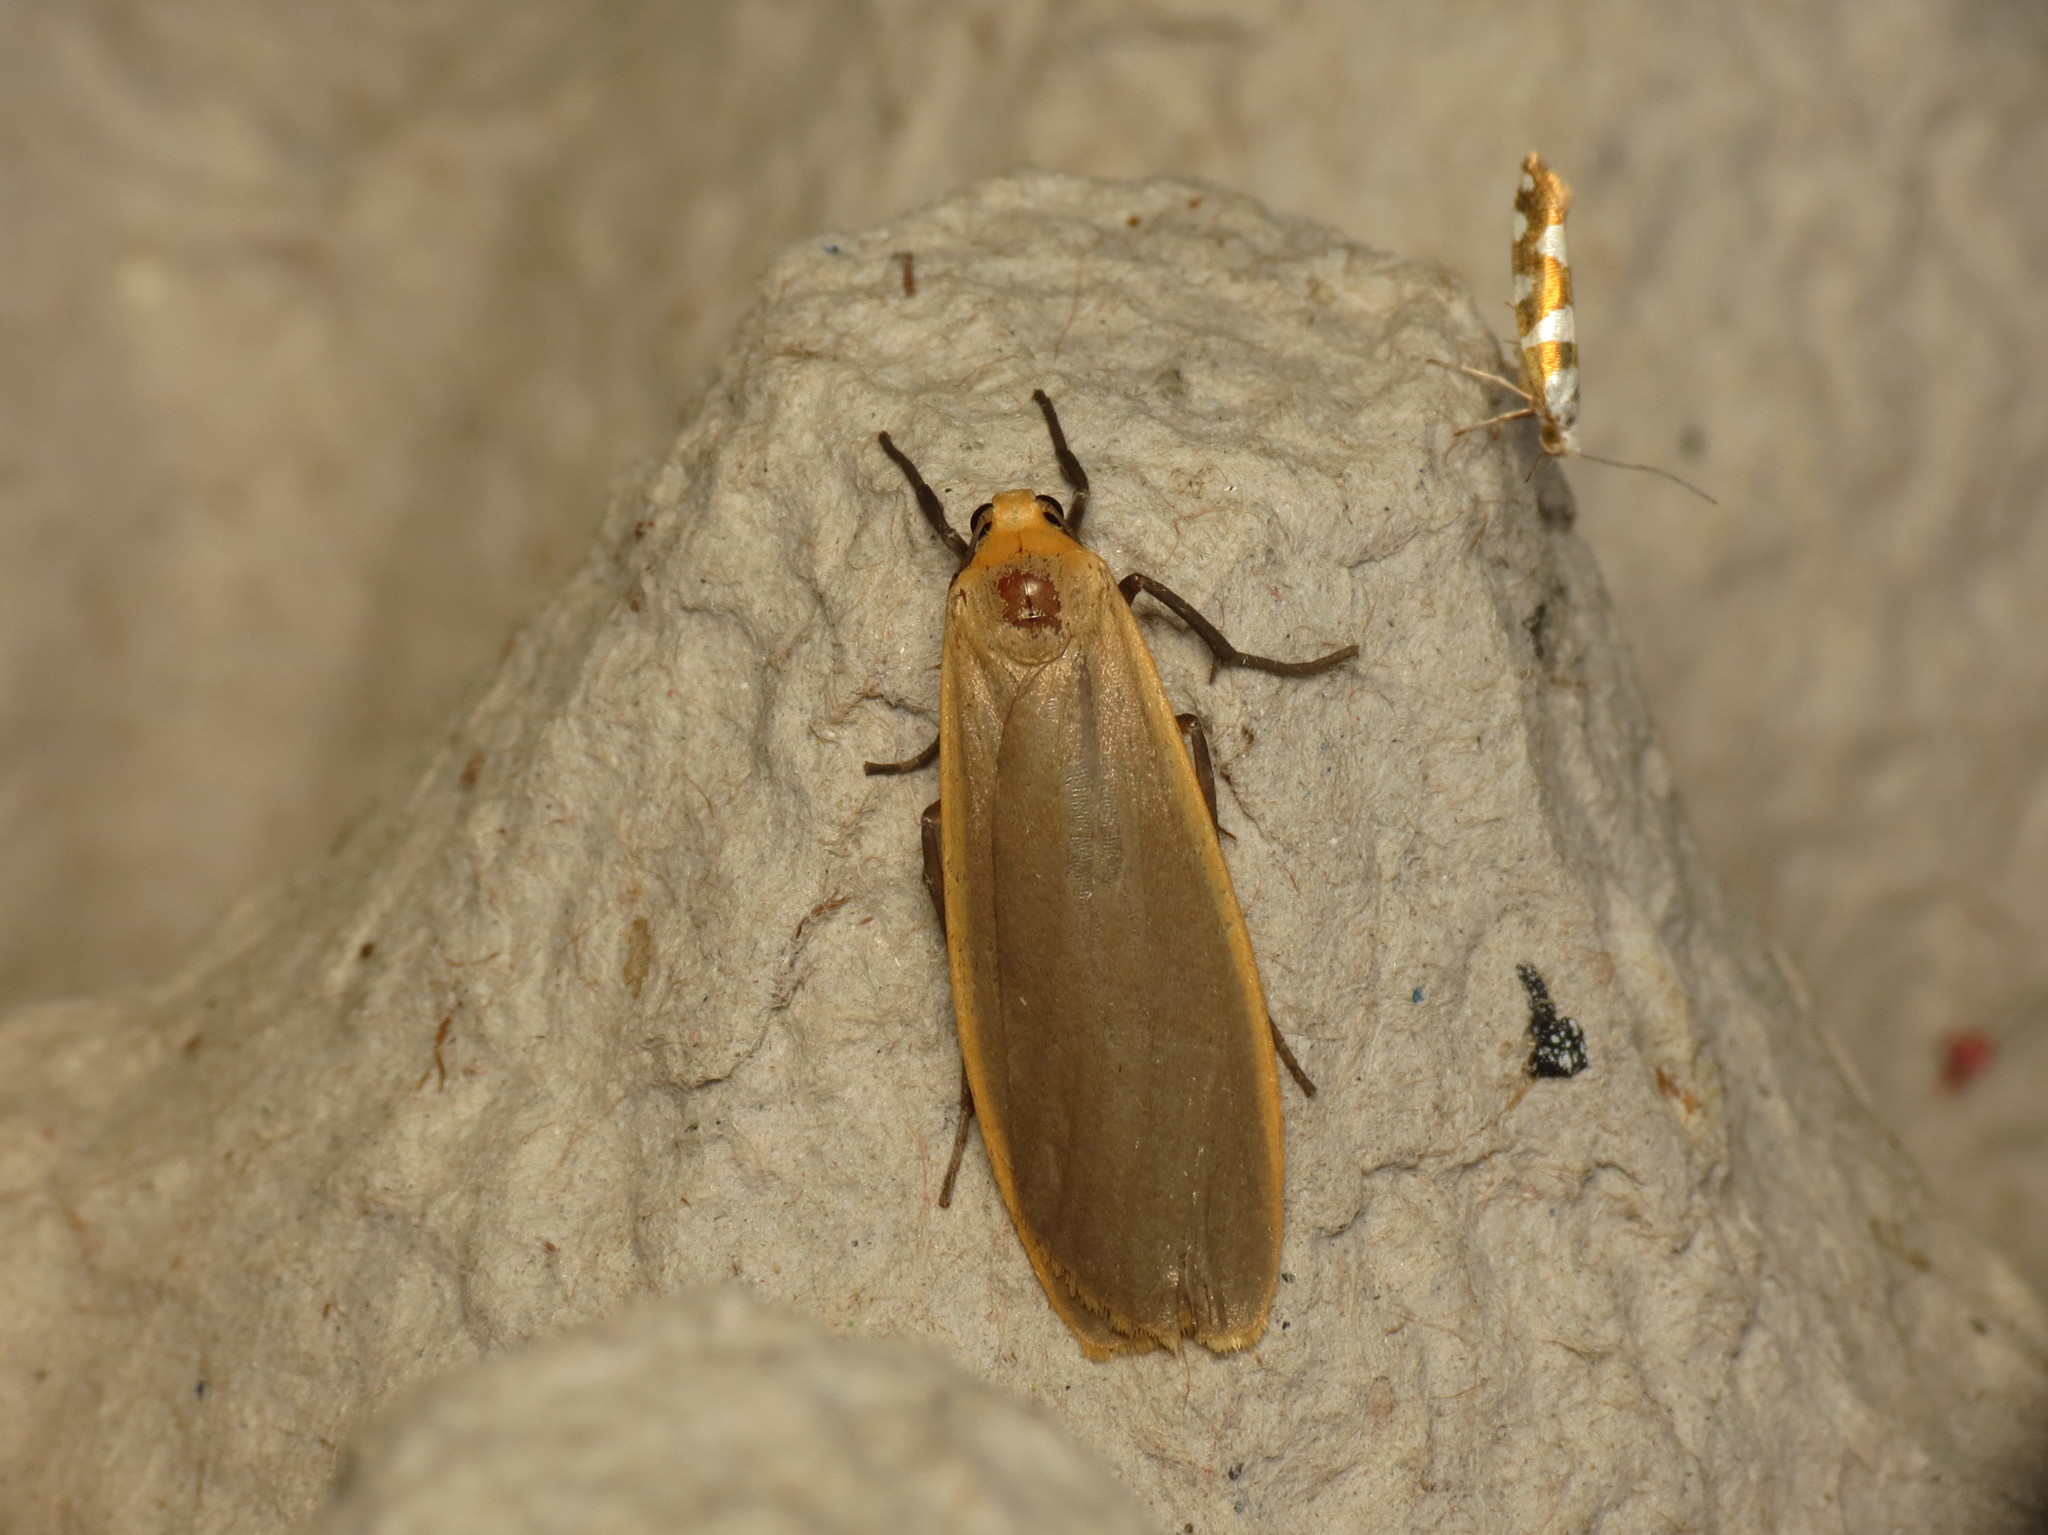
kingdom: Animalia
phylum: Arthropoda
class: Insecta
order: Lepidoptera
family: Erebidae
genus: Katha
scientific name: Katha depressa
